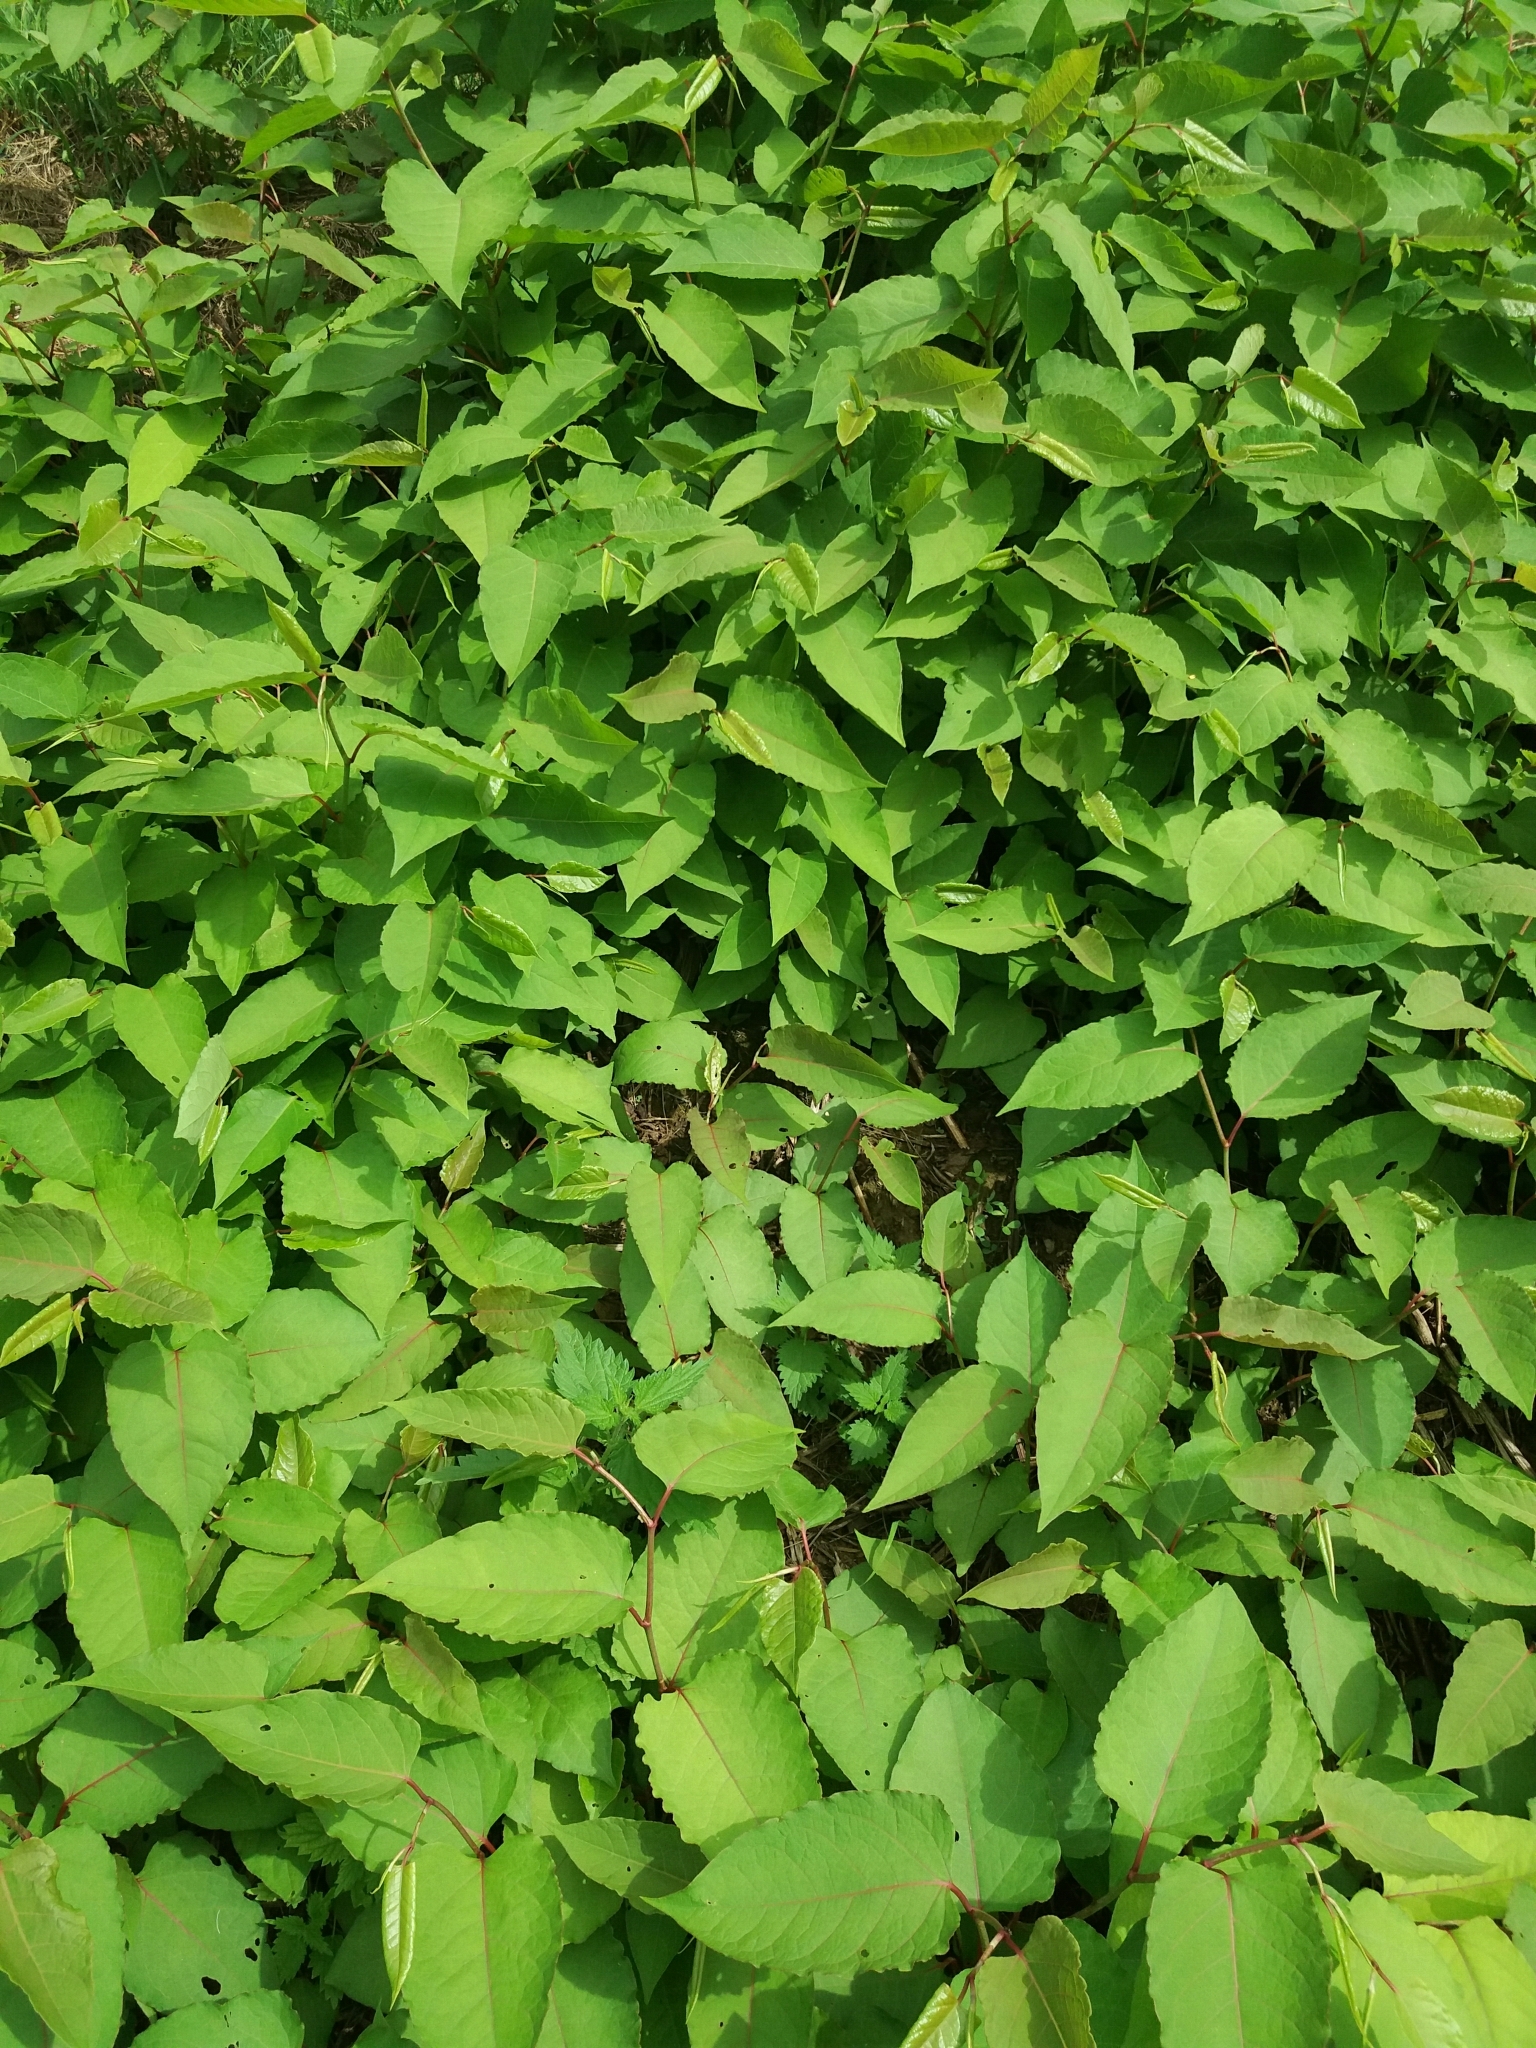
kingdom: Plantae
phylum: Tracheophyta
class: Magnoliopsida
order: Caryophyllales
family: Polygonaceae
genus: Reynoutria
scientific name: Reynoutria japonica
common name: Japanese knotweed
